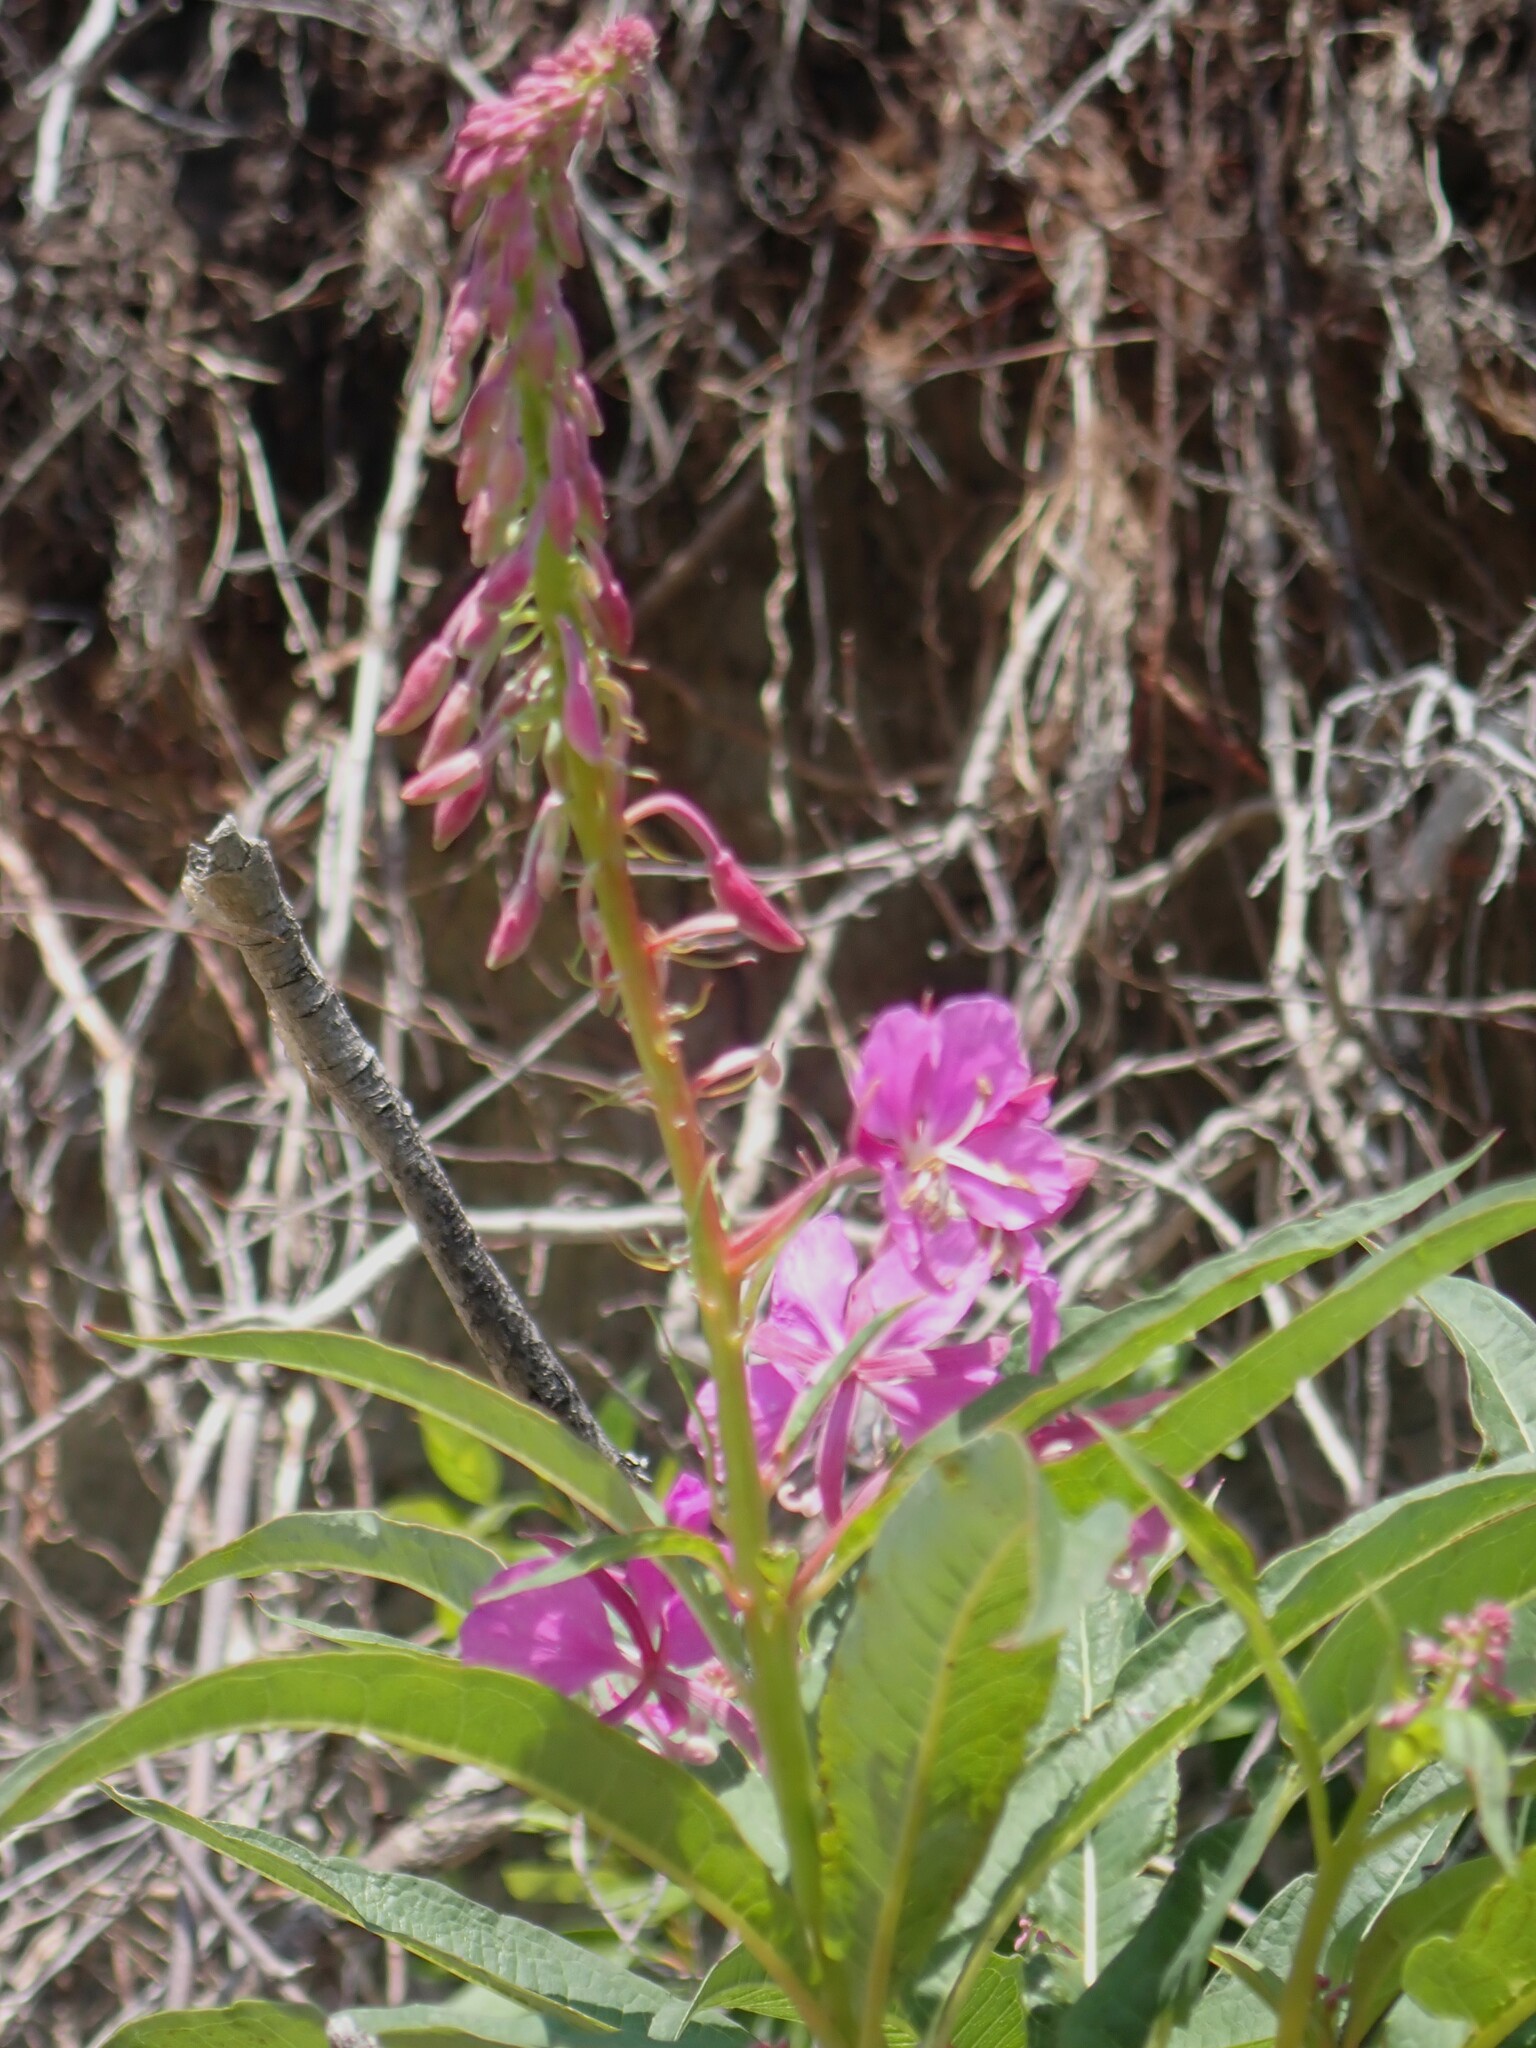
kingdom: Plantae
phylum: Tracheophyta
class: Magnoliopsida
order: Myrtales
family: Onagraceae
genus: Chamaenerion
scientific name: Chamaenerion angustifolium
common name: Fireweed
